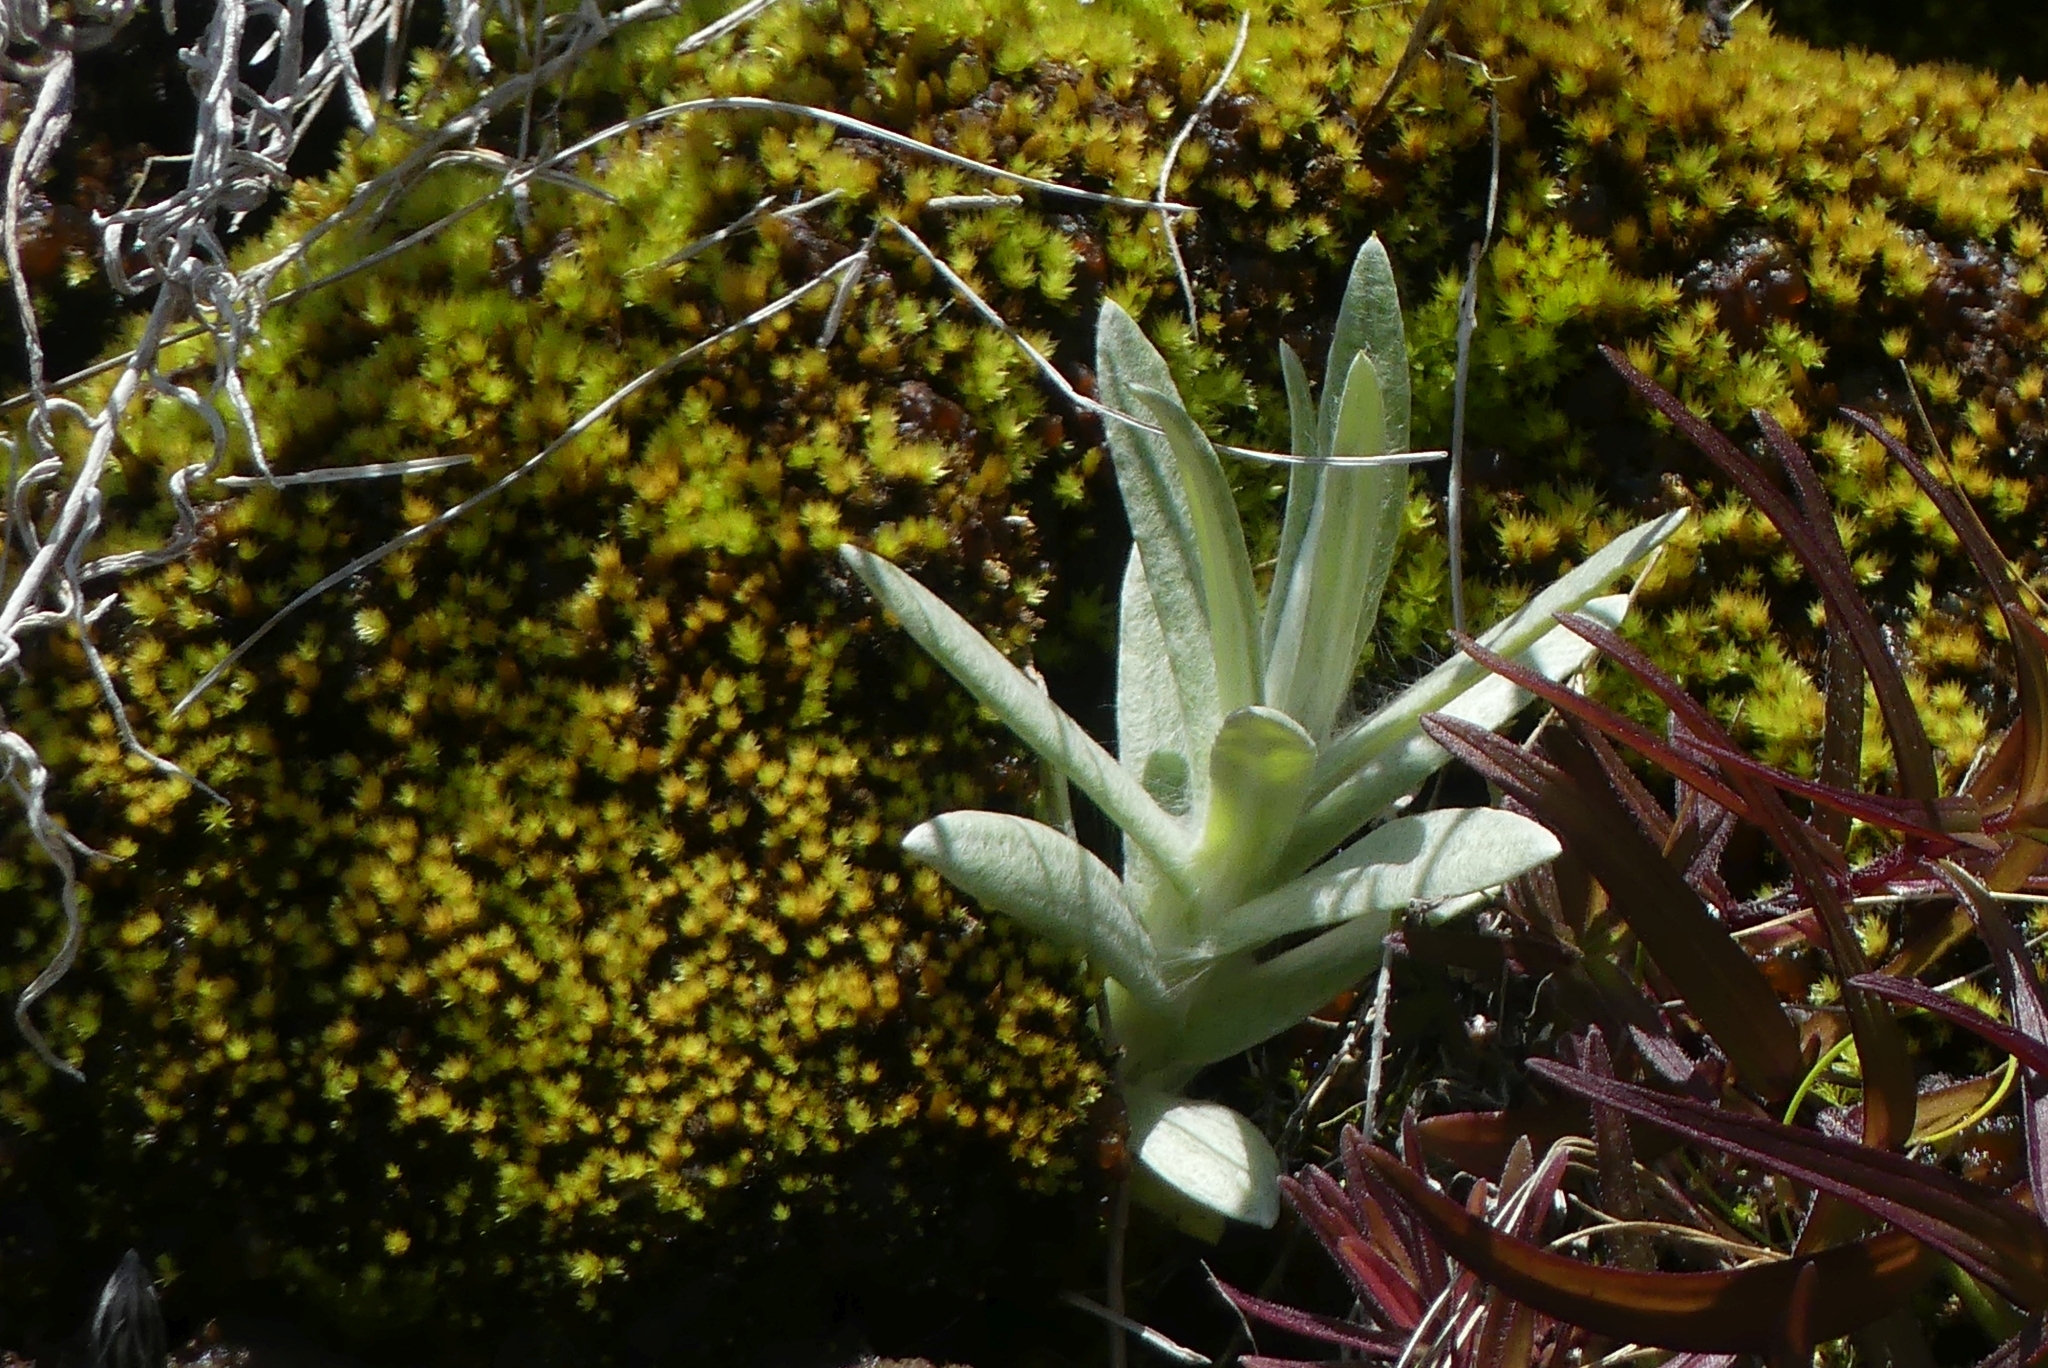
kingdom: Plantae
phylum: Tracheophyta
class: Magnoliopsida
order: Asterales
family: Asteraceae
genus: Anaphalis
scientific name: Anaphalis margaritacea
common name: Pearly everlasting
